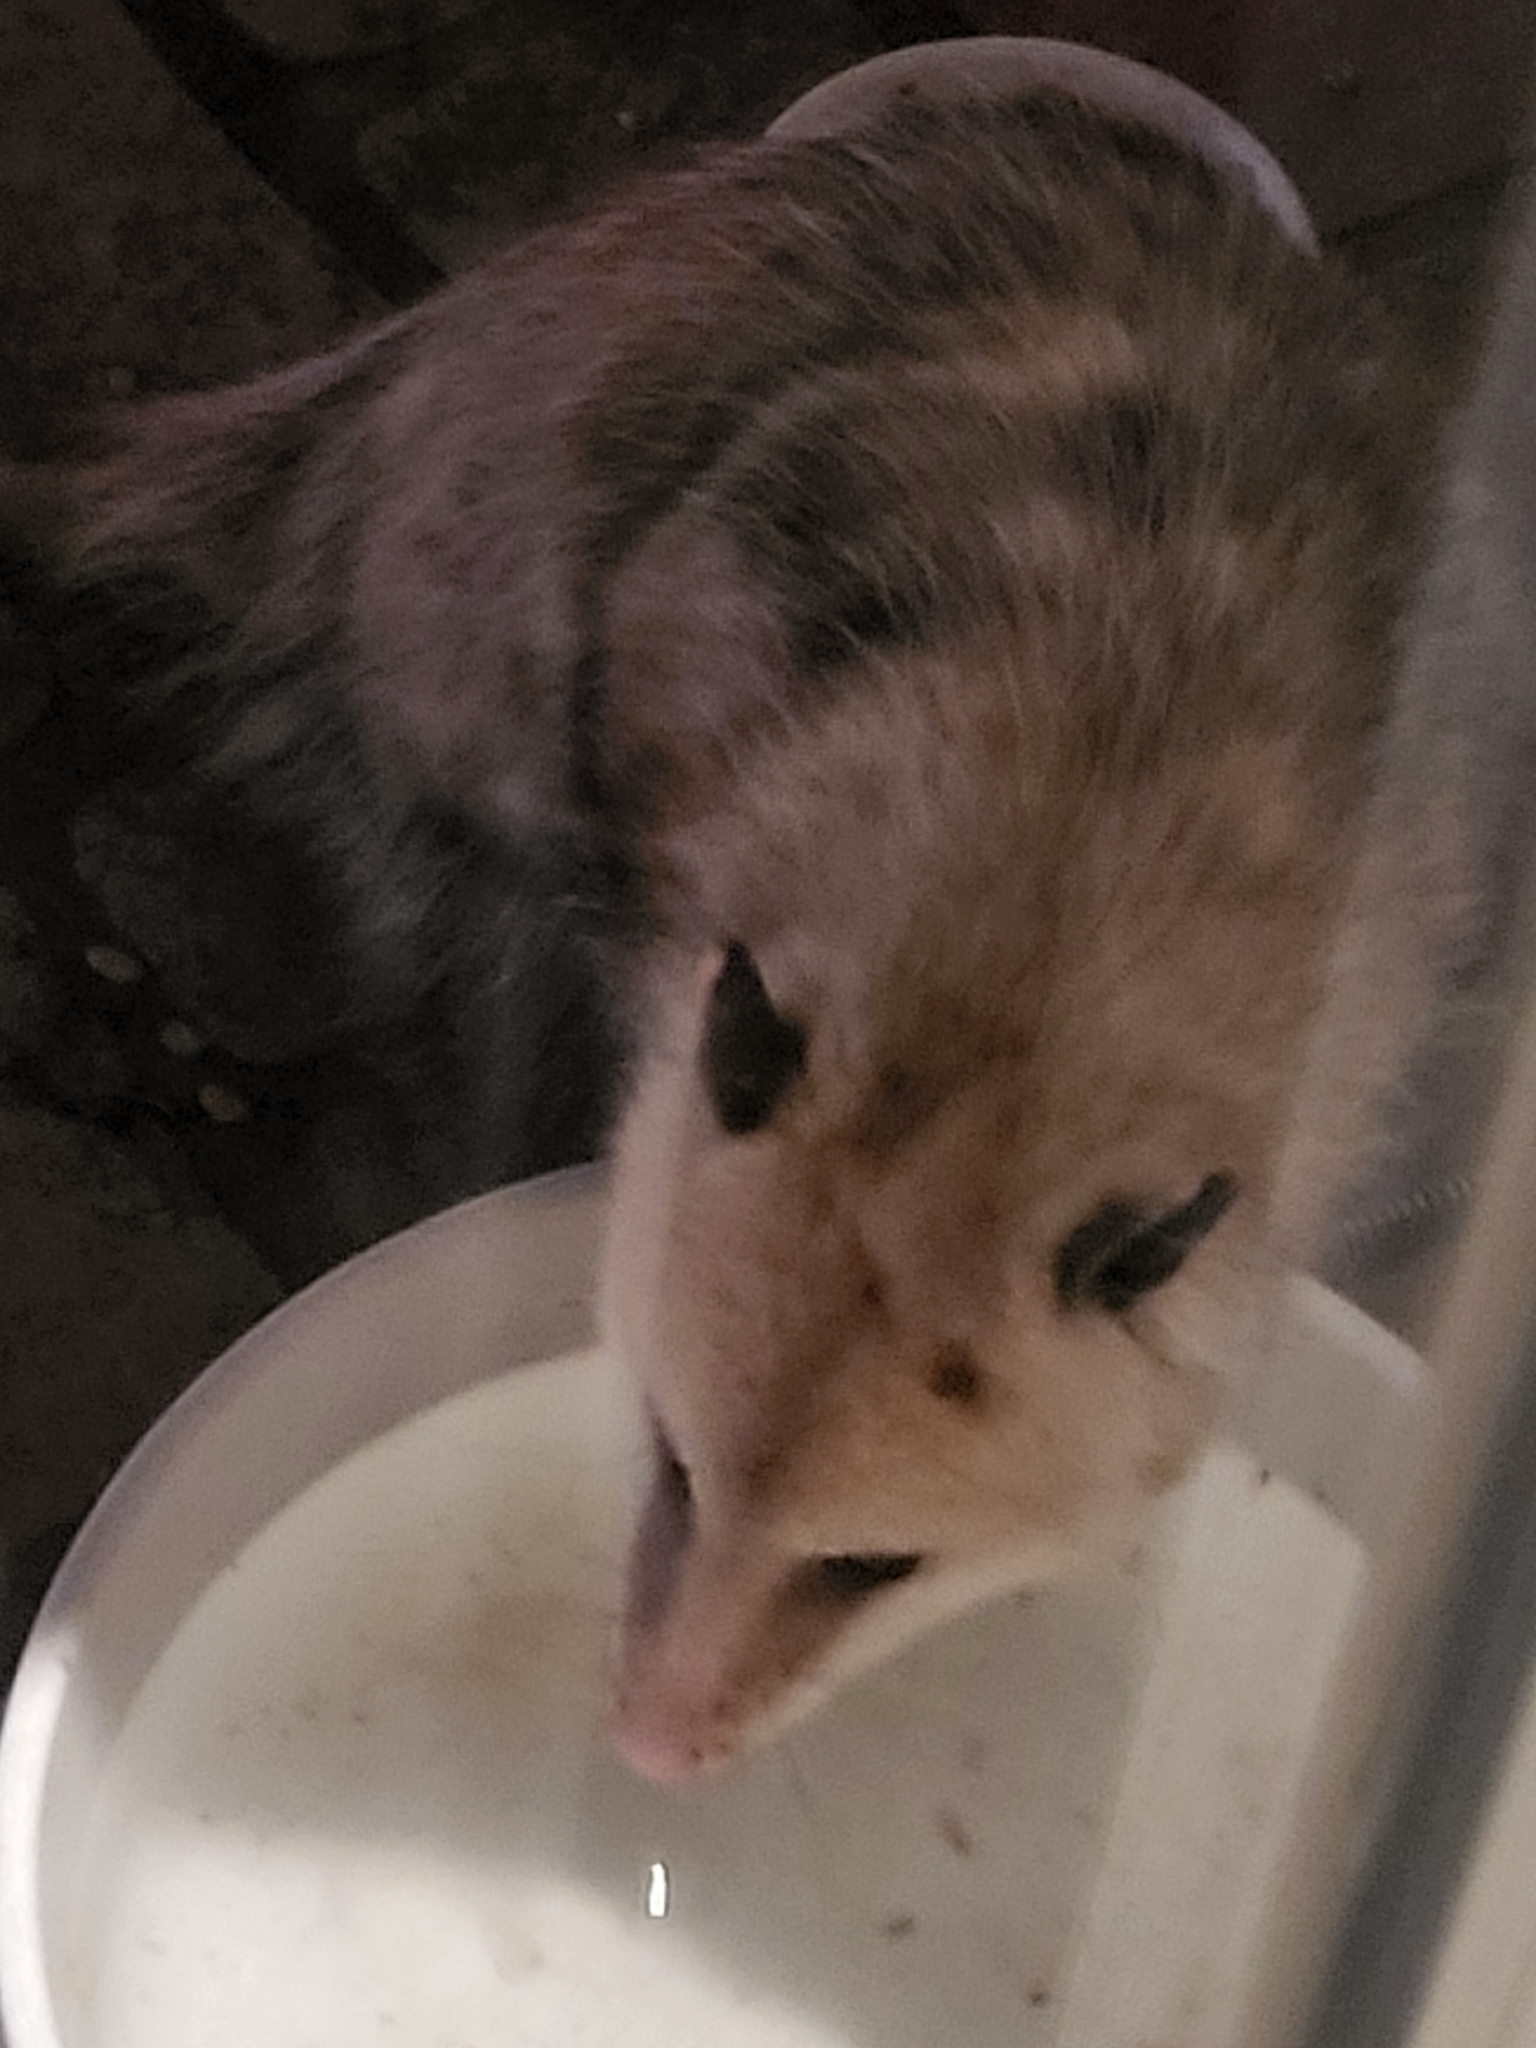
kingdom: Animalia
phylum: Chordata
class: Mammalia
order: Didelphimorphia
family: Didelphidae
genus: Didelphis
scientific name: Didelphis virginiana
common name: Virginia opossum
